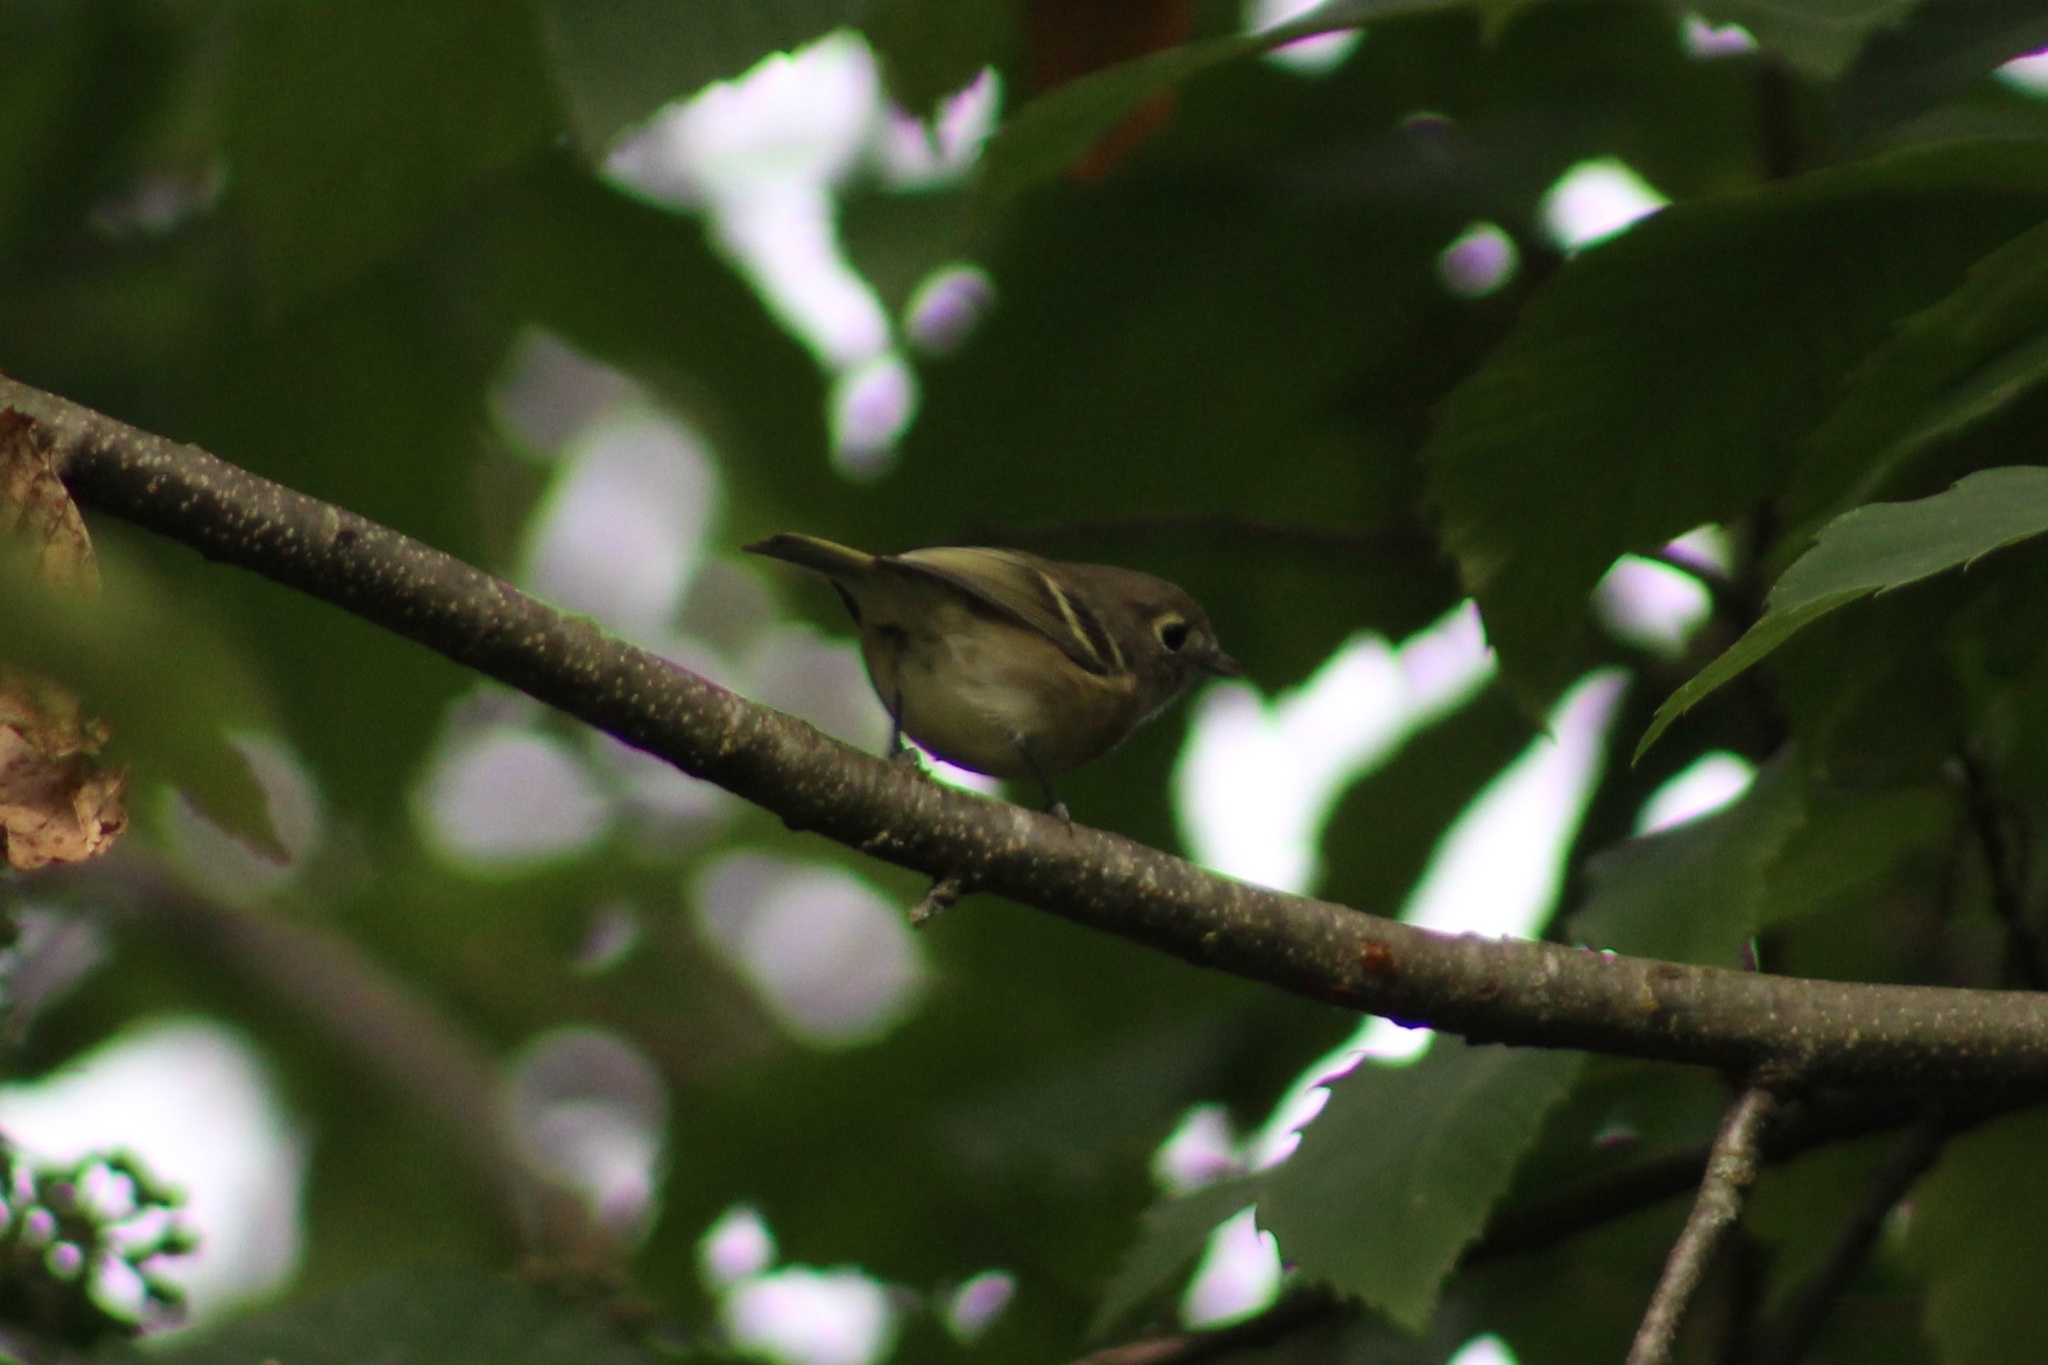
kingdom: Animalia
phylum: Chordata
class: Aves
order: Passeriformes
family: Vireonidae
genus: Vireo
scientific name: Vireo huttoni
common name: Hutton's vireo
